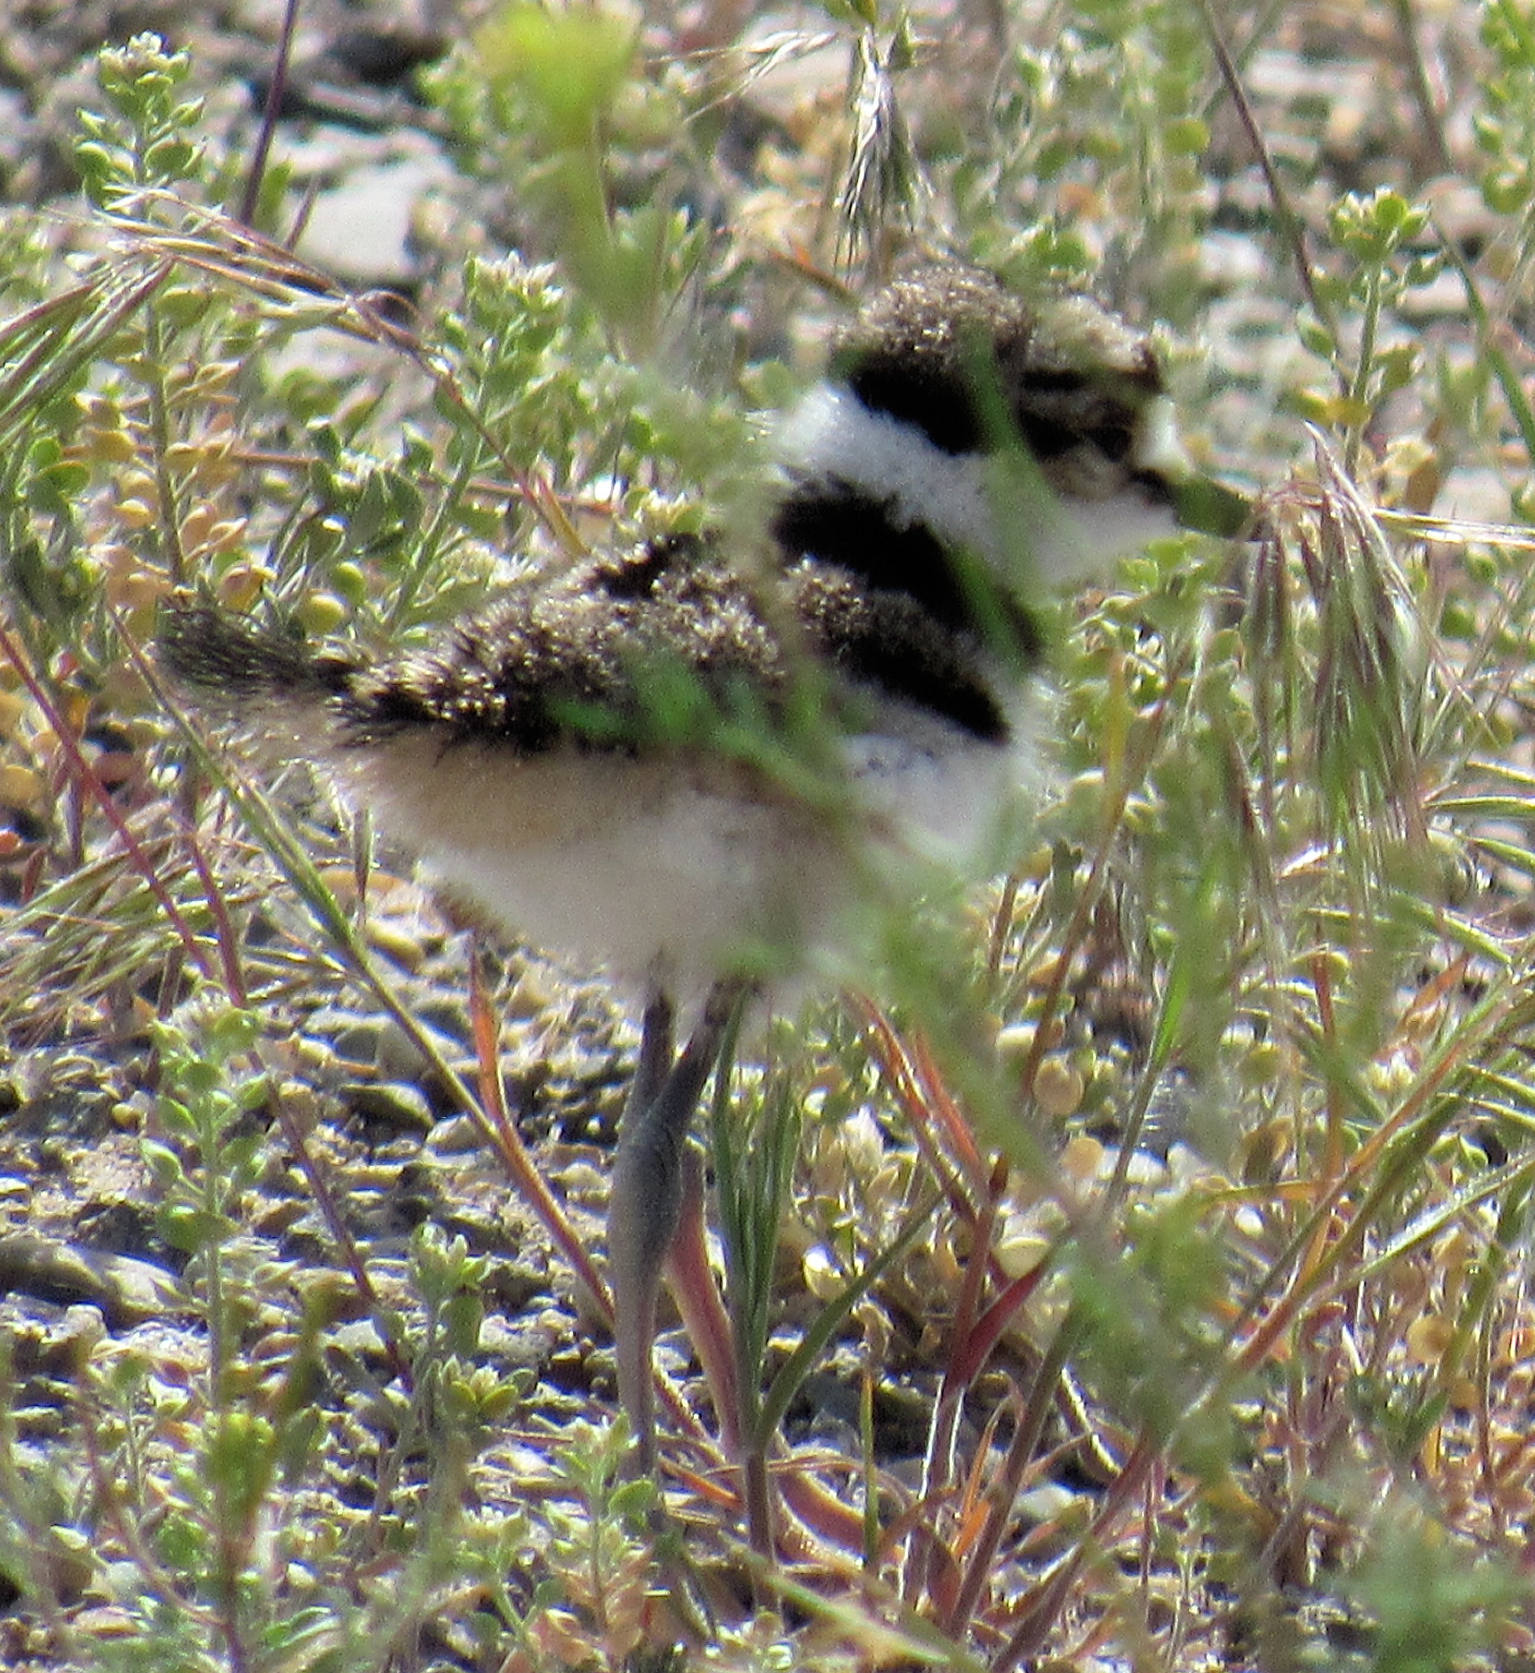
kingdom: Animalia
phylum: Chordata
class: Aves
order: Charadriiformes
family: Charadriidae
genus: Charadrius
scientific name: Charadrius vociferus
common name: Killdeer
